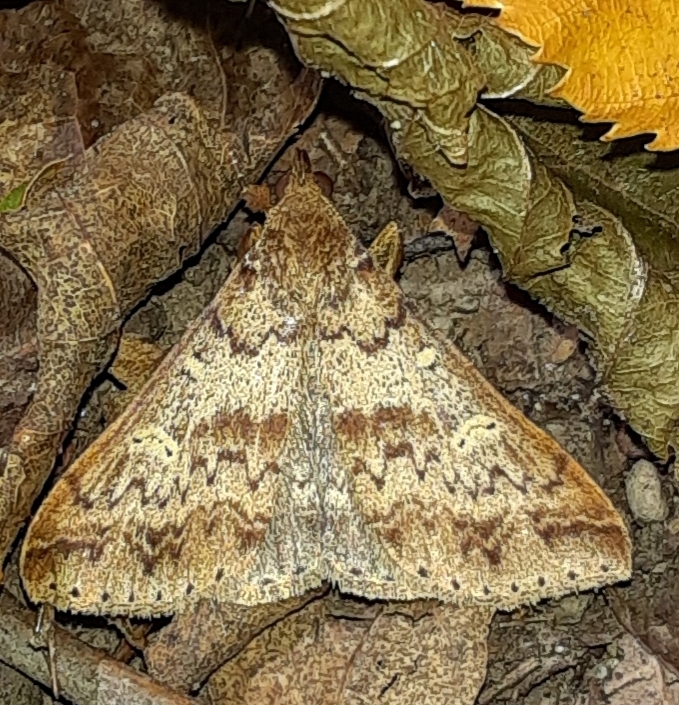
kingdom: Animalia
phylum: Arthropoda
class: Insecta
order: Lepidoptera
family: Erebidae
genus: Renia
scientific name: Renia discoloralis
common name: Discolored renia moth
